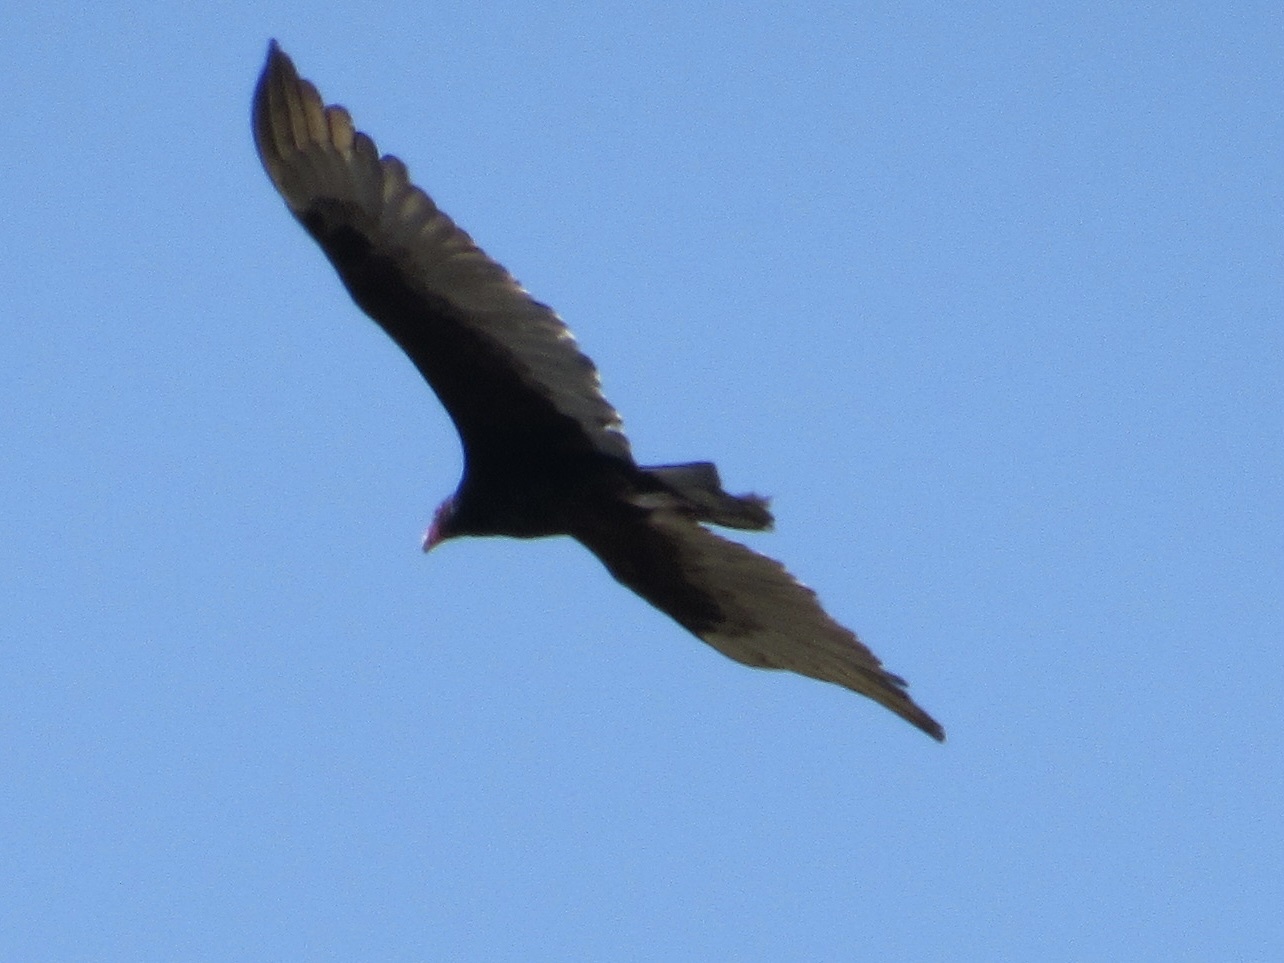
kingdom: Animalia
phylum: Chordata
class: Aves
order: Accipitriformes
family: Cathartidae
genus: Cathartes
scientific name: Cathartes aura
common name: Turkey vulture
